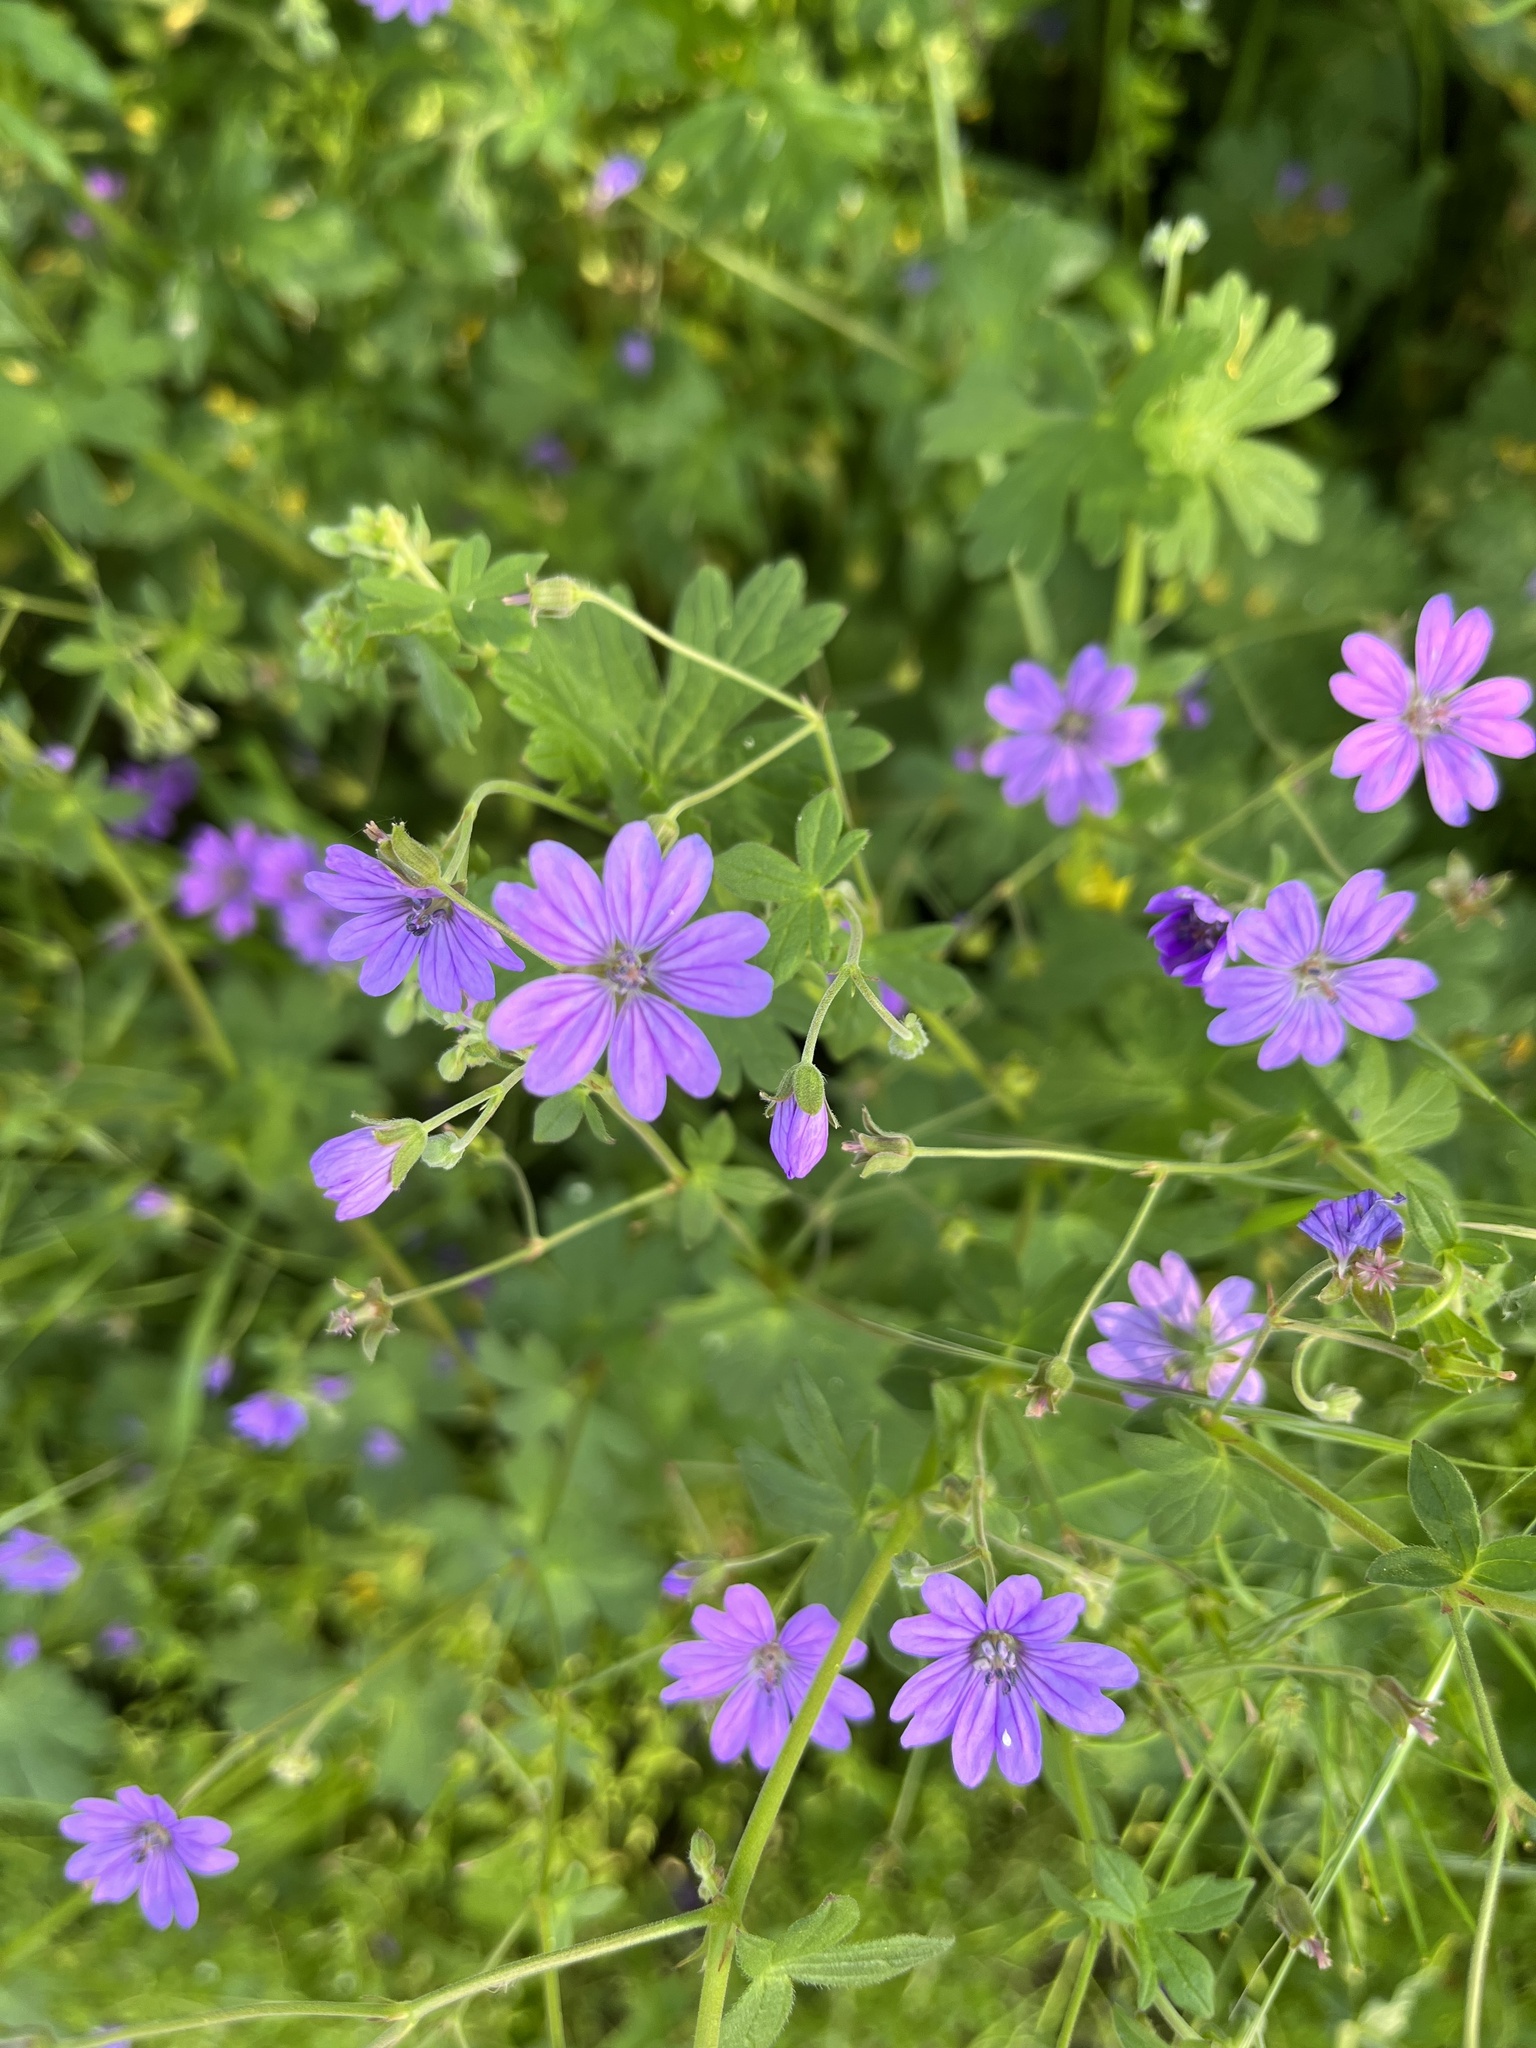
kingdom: Plantae
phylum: Tracheophyta
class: Magnoliopsida
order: Geraniales
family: Geraniaceae
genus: Geranium
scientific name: Geranium pyrenaicum
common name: Hedgerow crane's-bill
